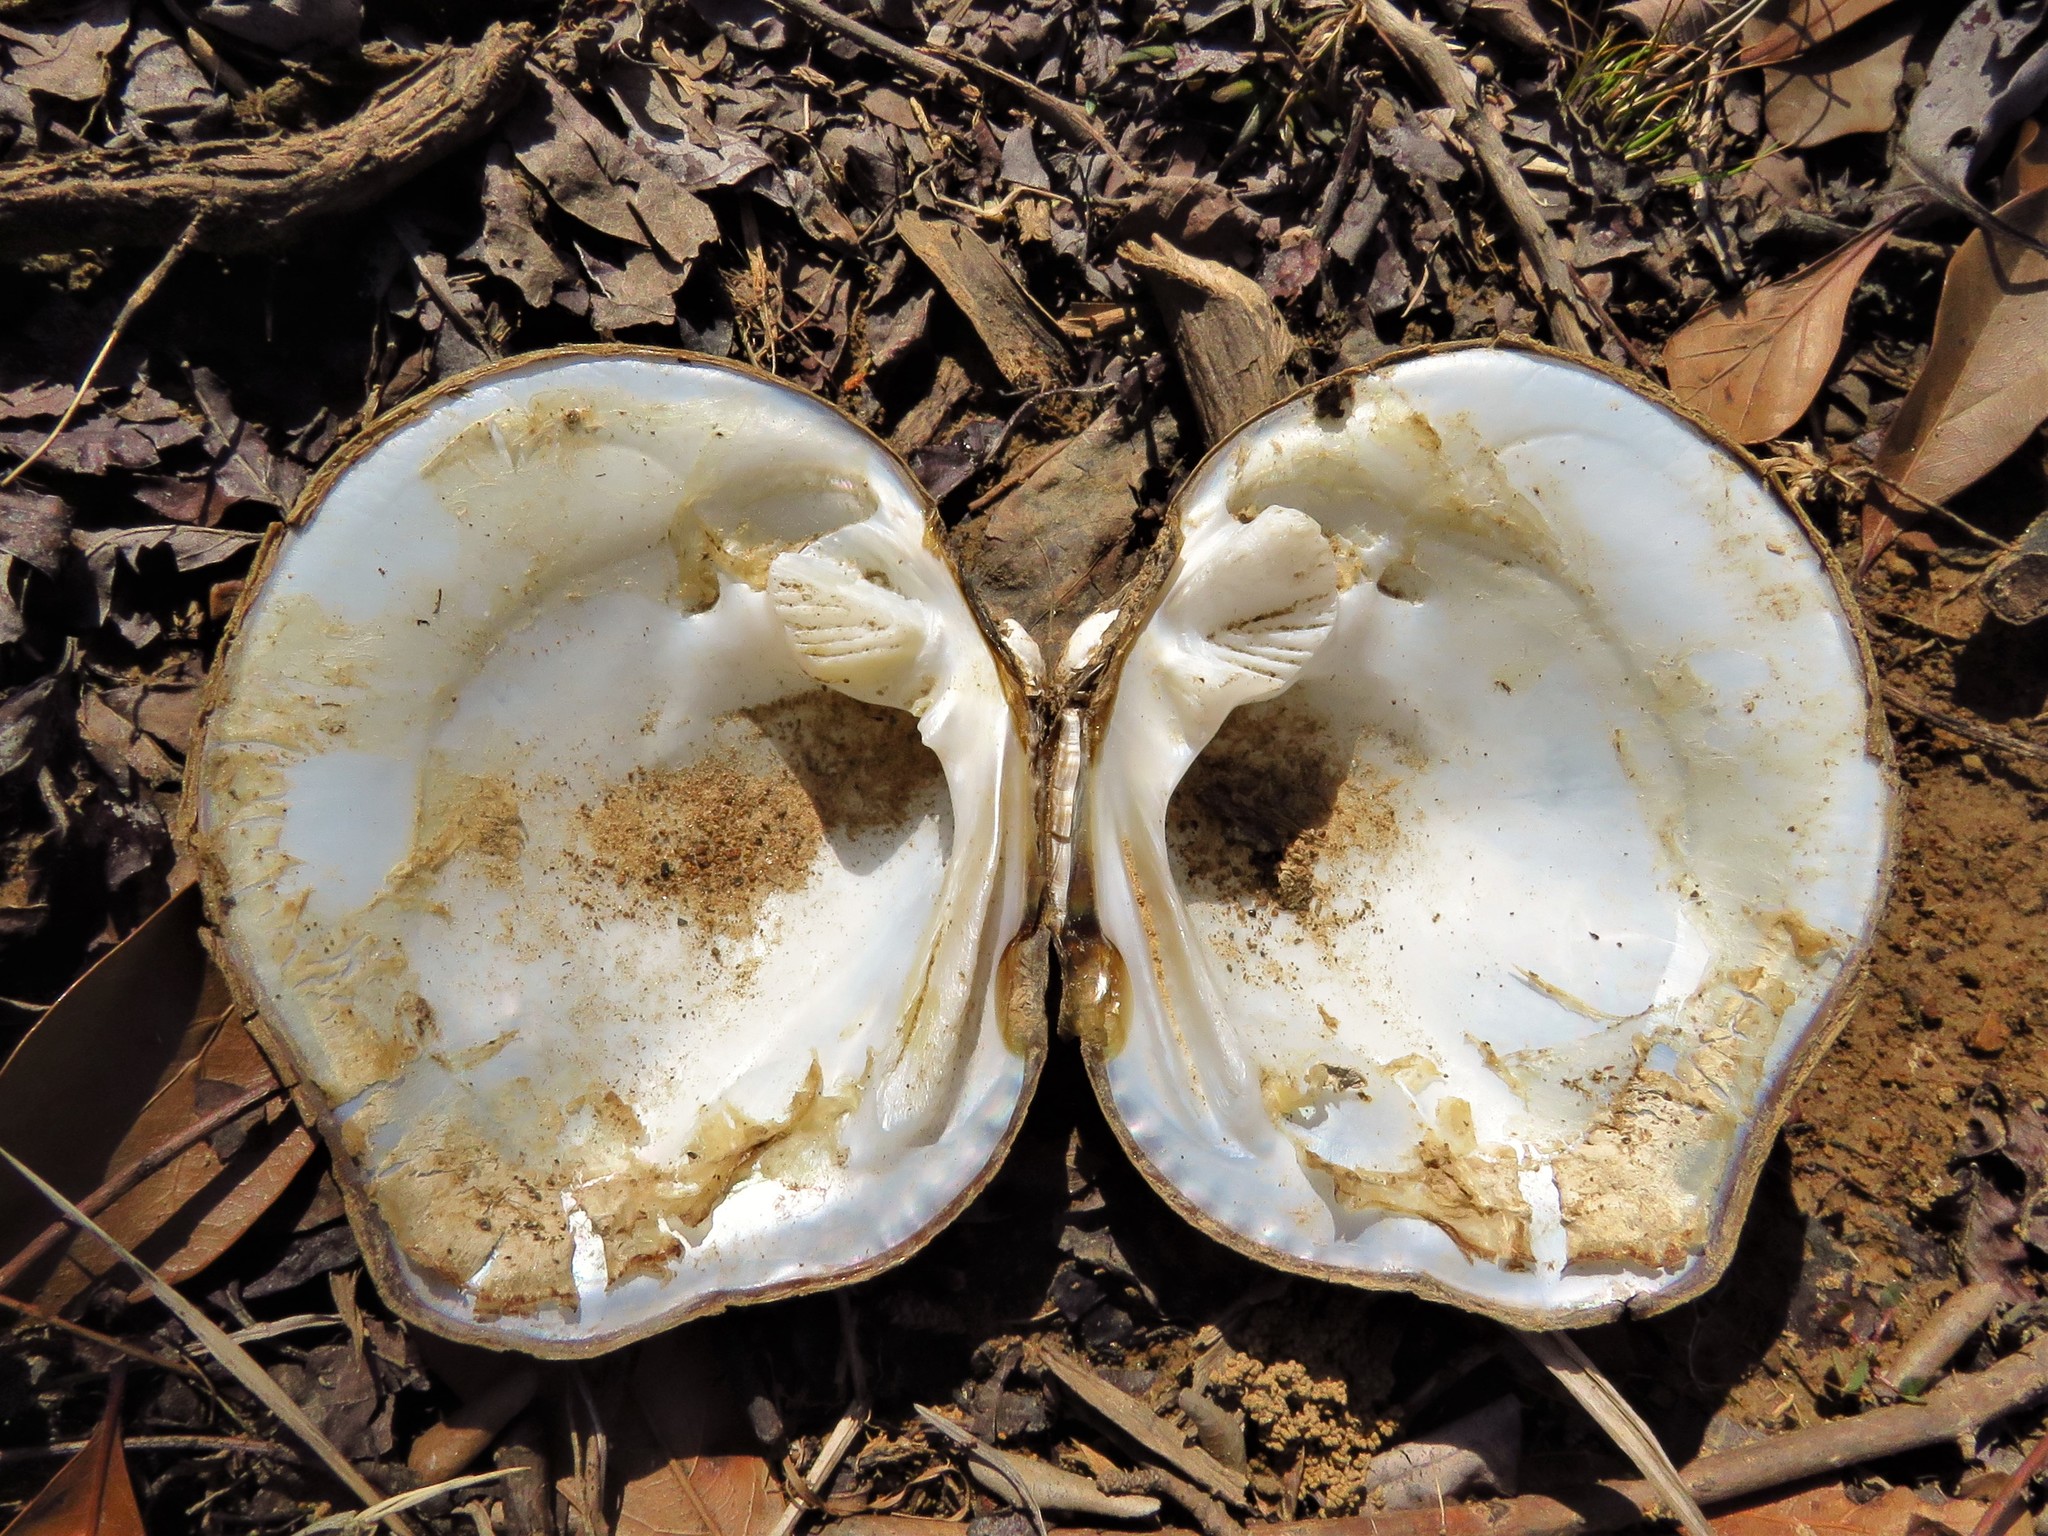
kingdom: Animalia
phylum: Mollusca
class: Bivalvia
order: Unionida
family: Unionidae
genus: Quadrula
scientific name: Quadrula quadrula
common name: Mapleleaf
